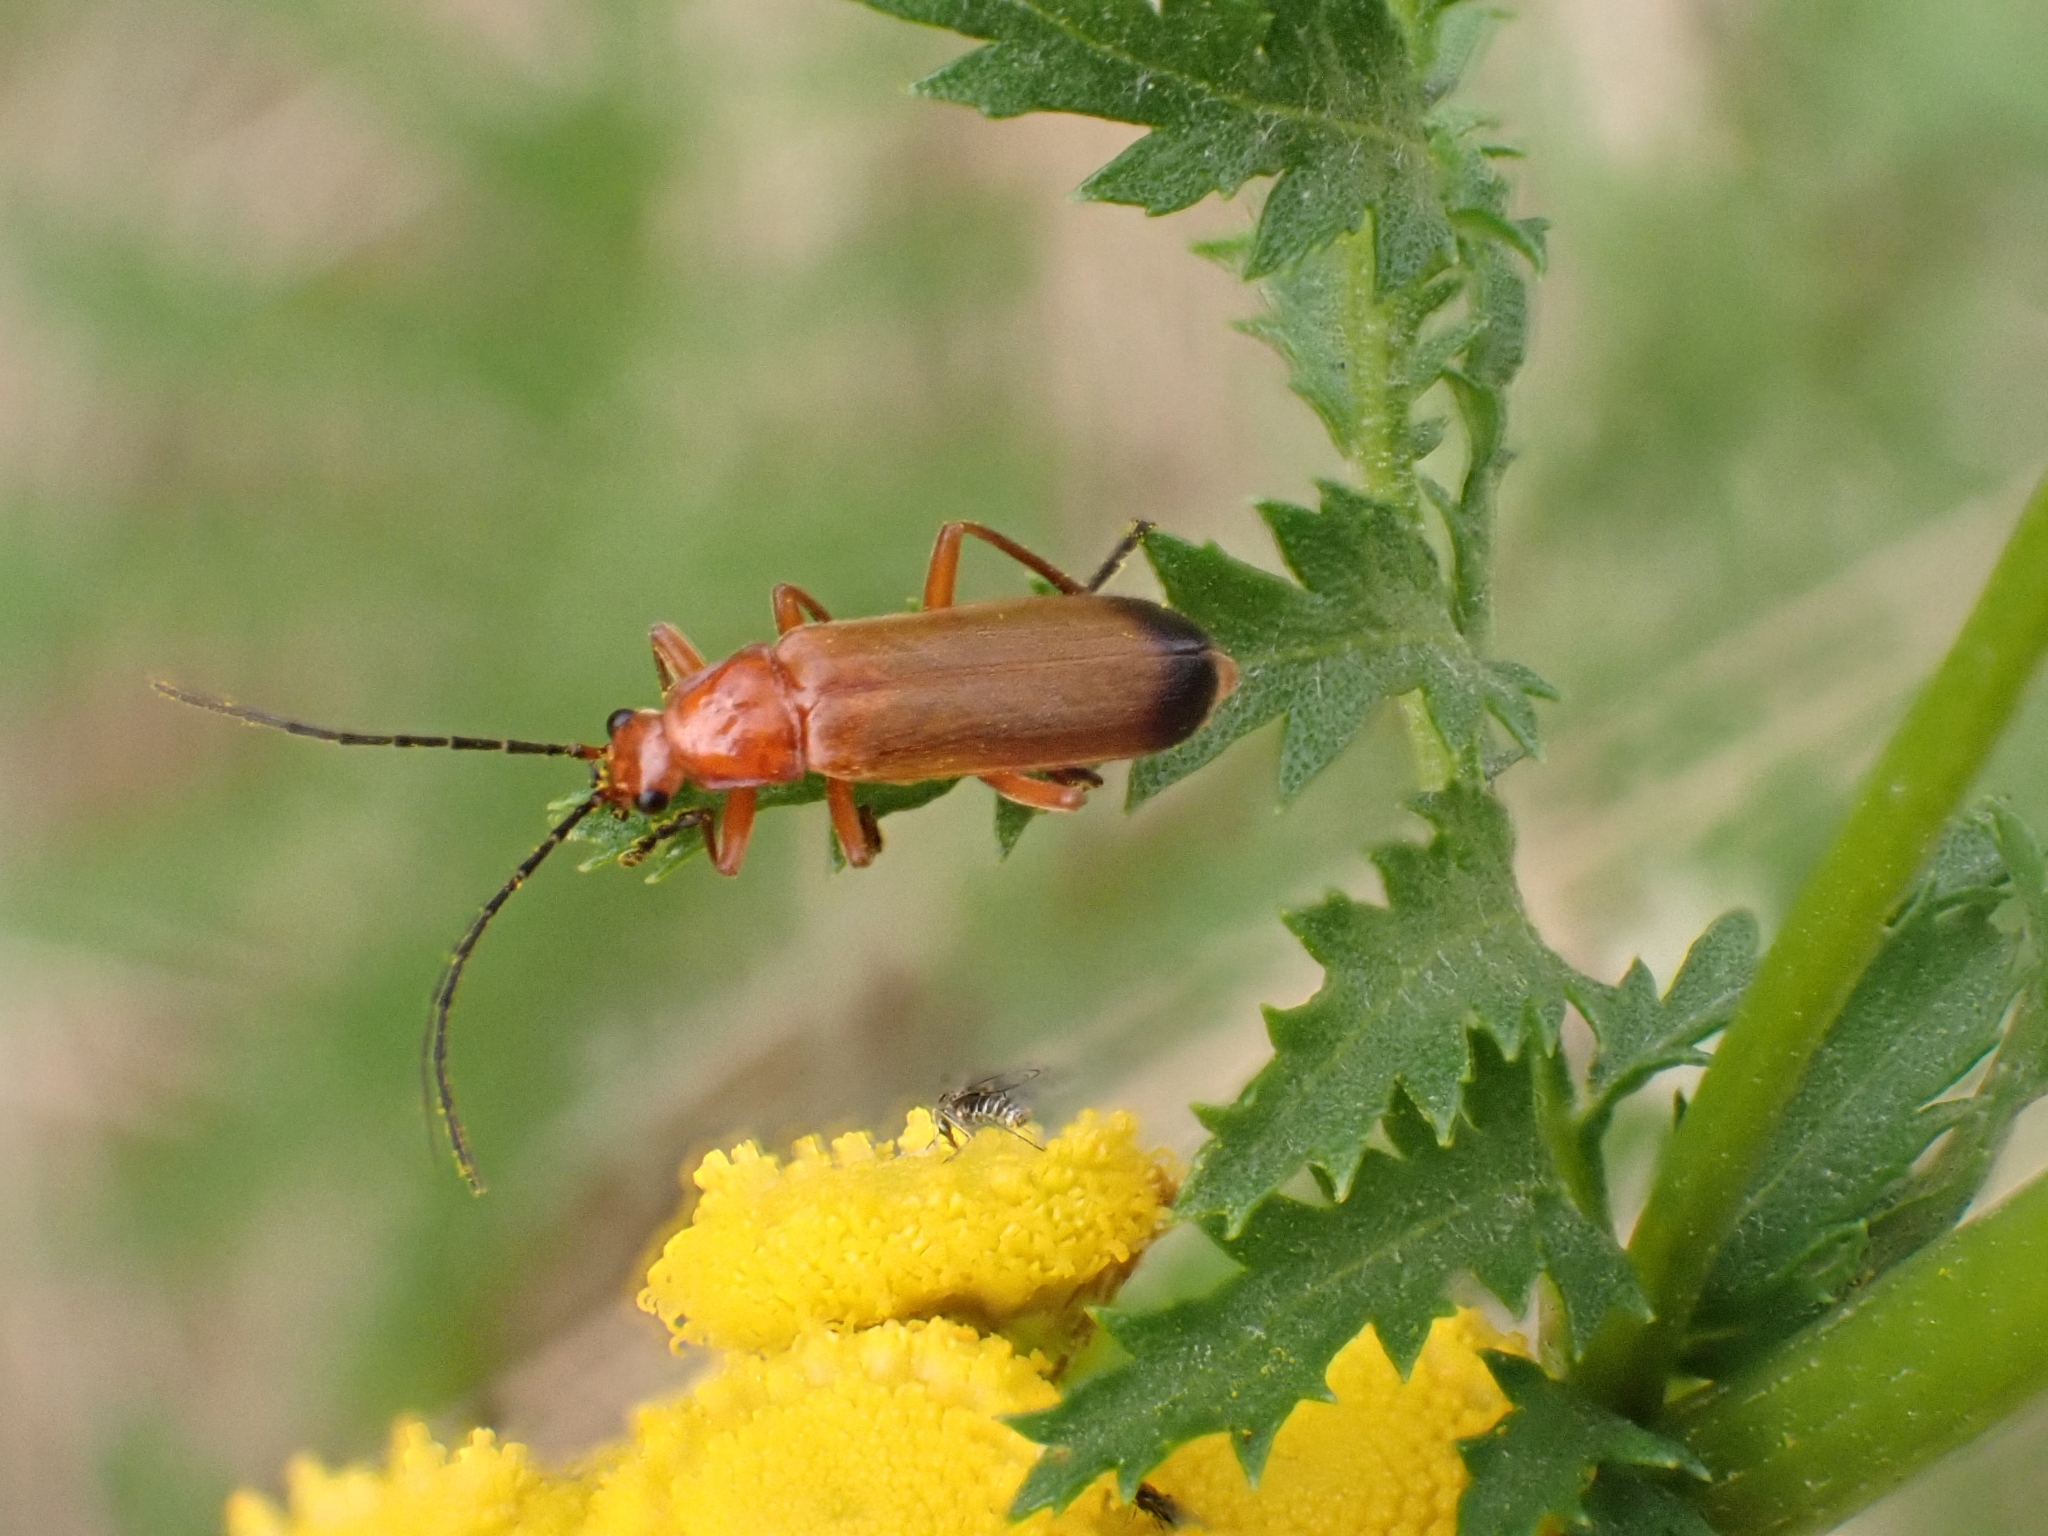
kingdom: Animalia
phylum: Arthropoda
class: Insecta
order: Coleoptera
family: Cantharidae
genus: Rhagonycha
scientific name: Rhagonycha fulva
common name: Common red soldier beetle
